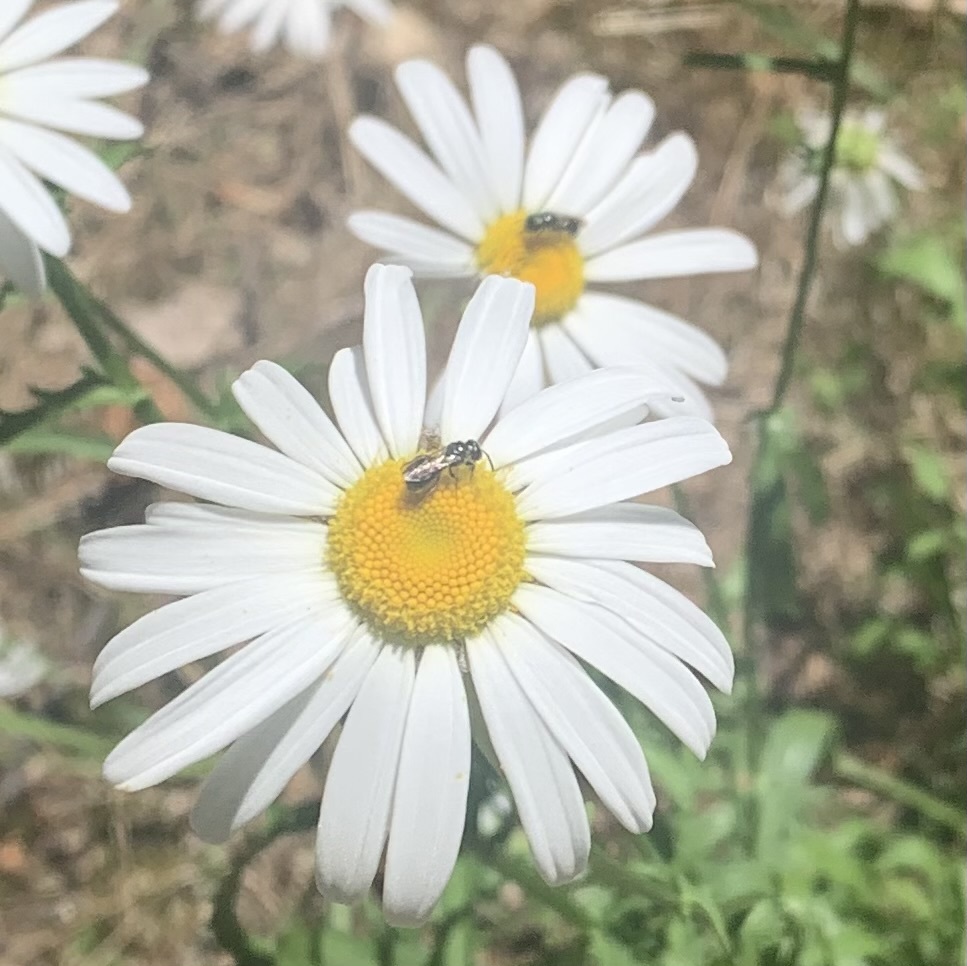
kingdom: Animalia
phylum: Arthropoda
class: Insecta
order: Hymenoptera
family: Apidae
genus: Zadontomerus
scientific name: Zadontomerus
